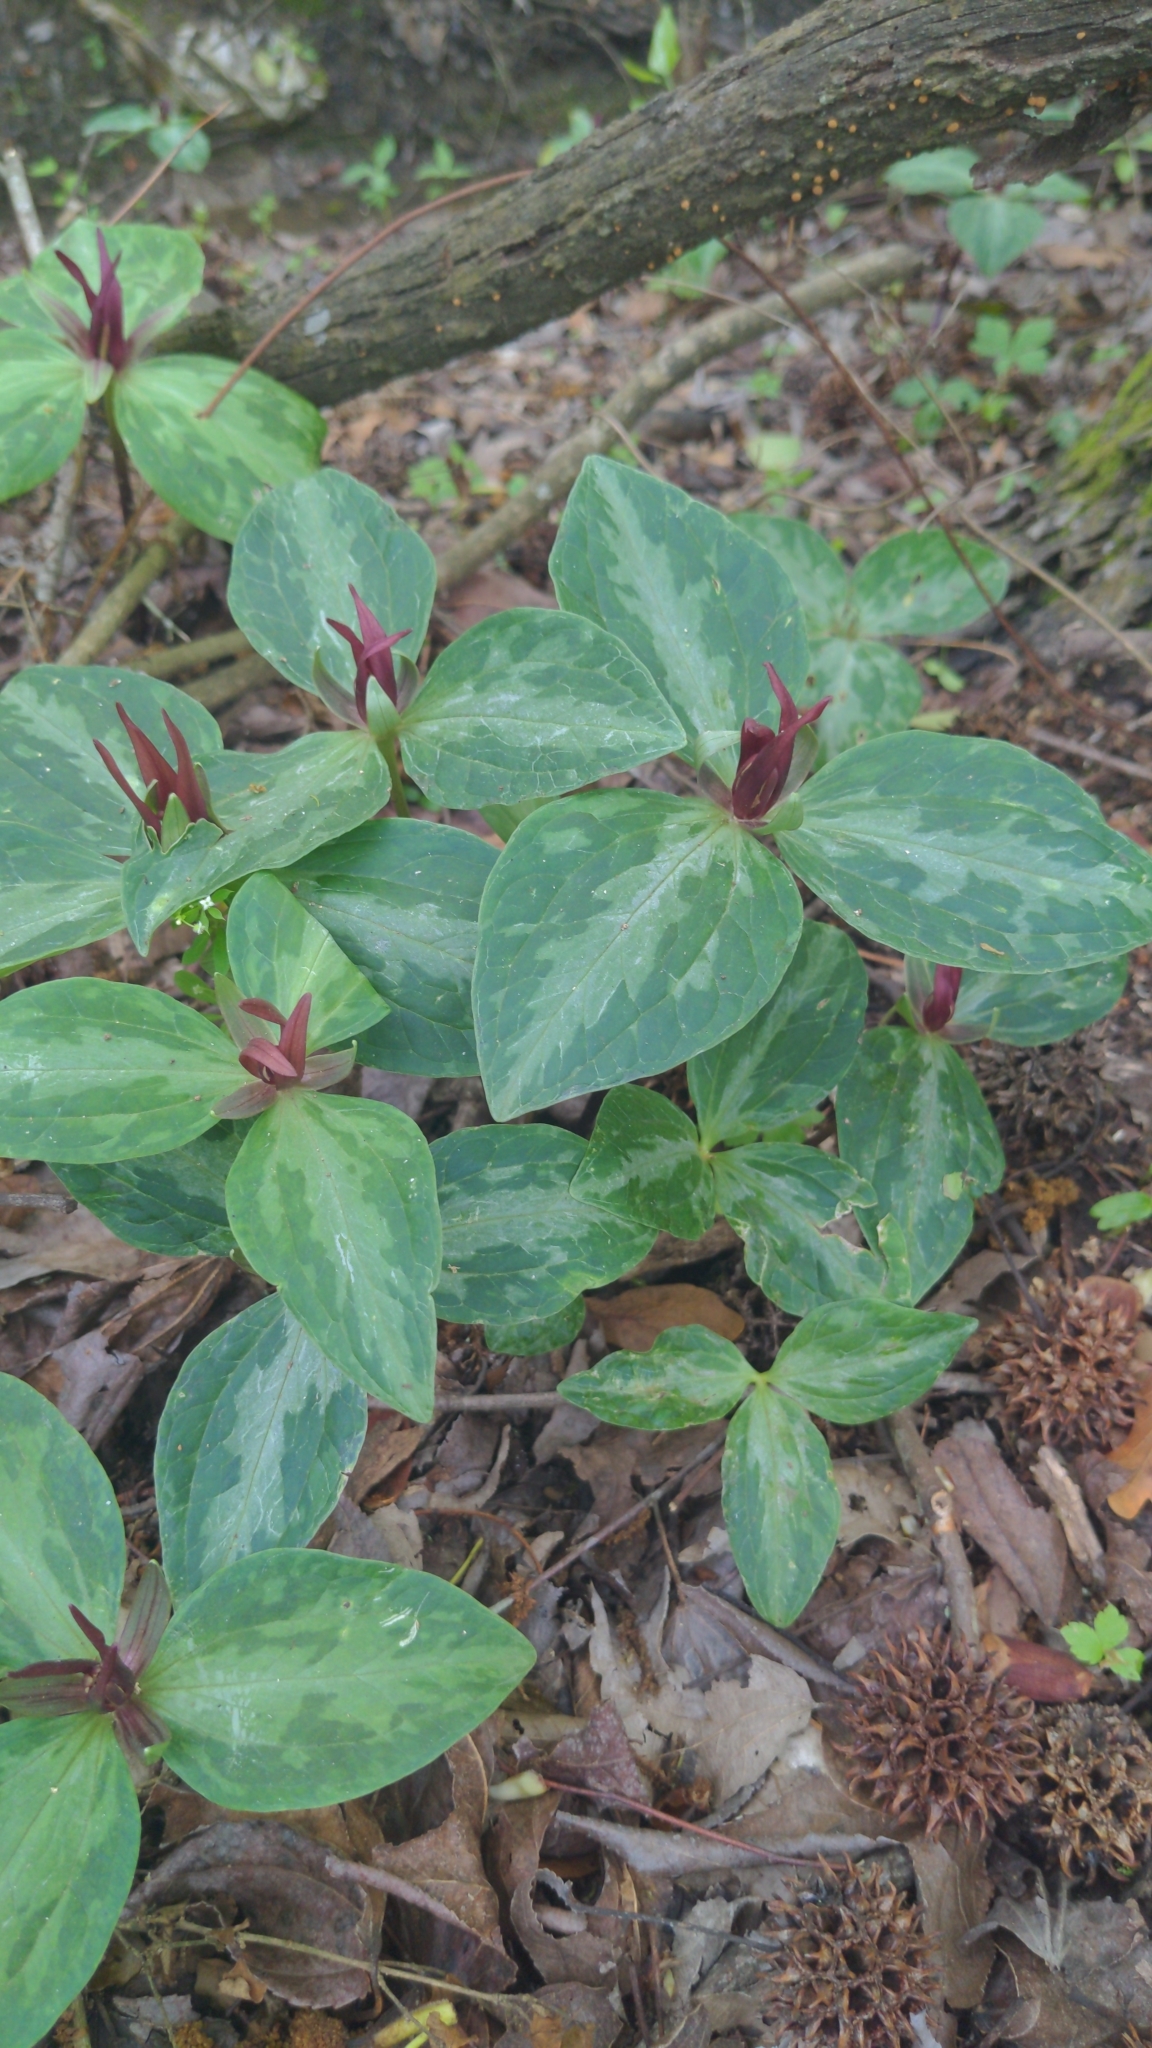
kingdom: Plantae
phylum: Tracheophyta
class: Liliopsida
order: Liliales
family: Melanthiaceae
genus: Trillium
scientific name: Trillium foetidissimum
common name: Mississippi river trillium
